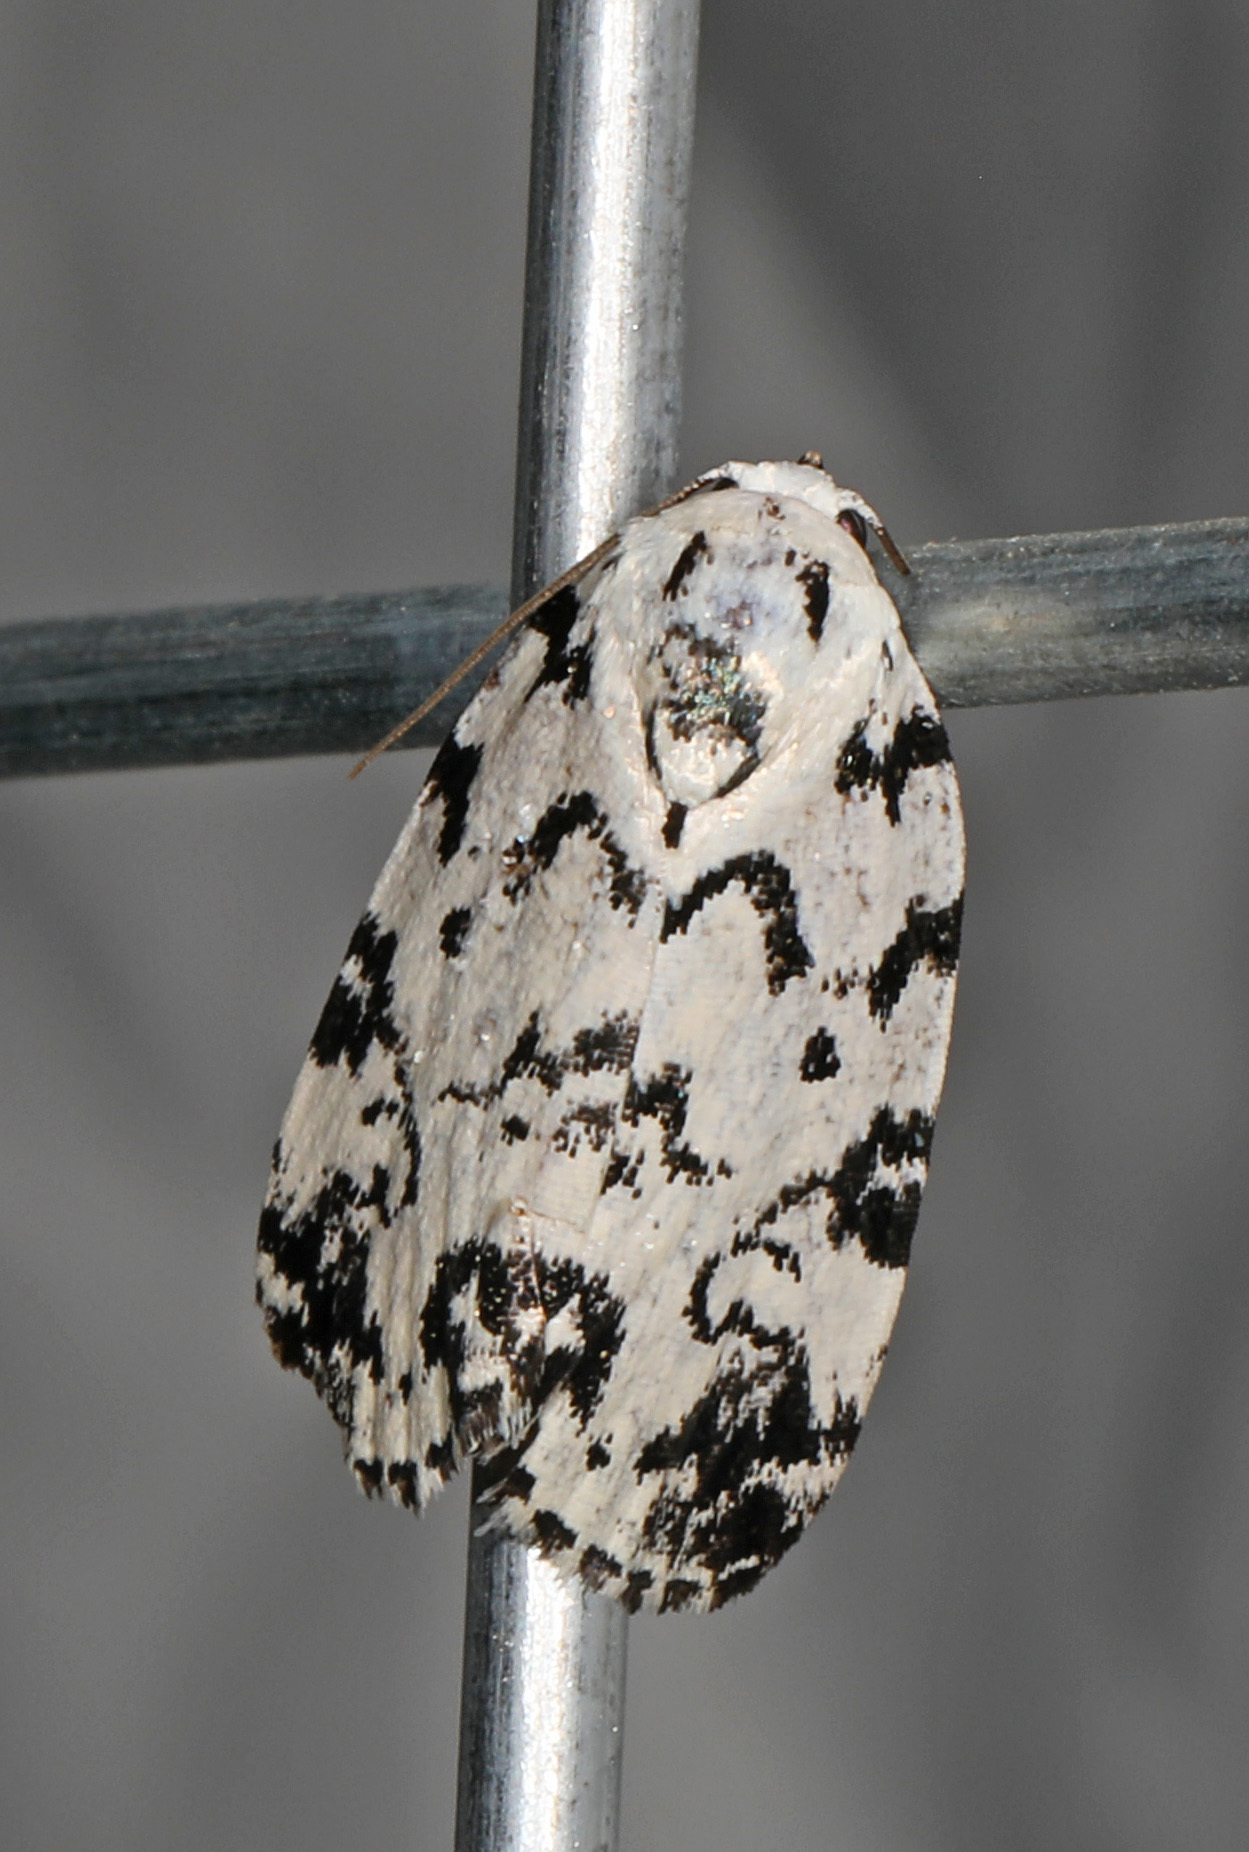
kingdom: Animalia
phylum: Arthropoda
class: Insecta
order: Lepidoptera
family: Noctuidae
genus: Polygrammate
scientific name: Polygrammate hebraeicum
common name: Hebrew moth
